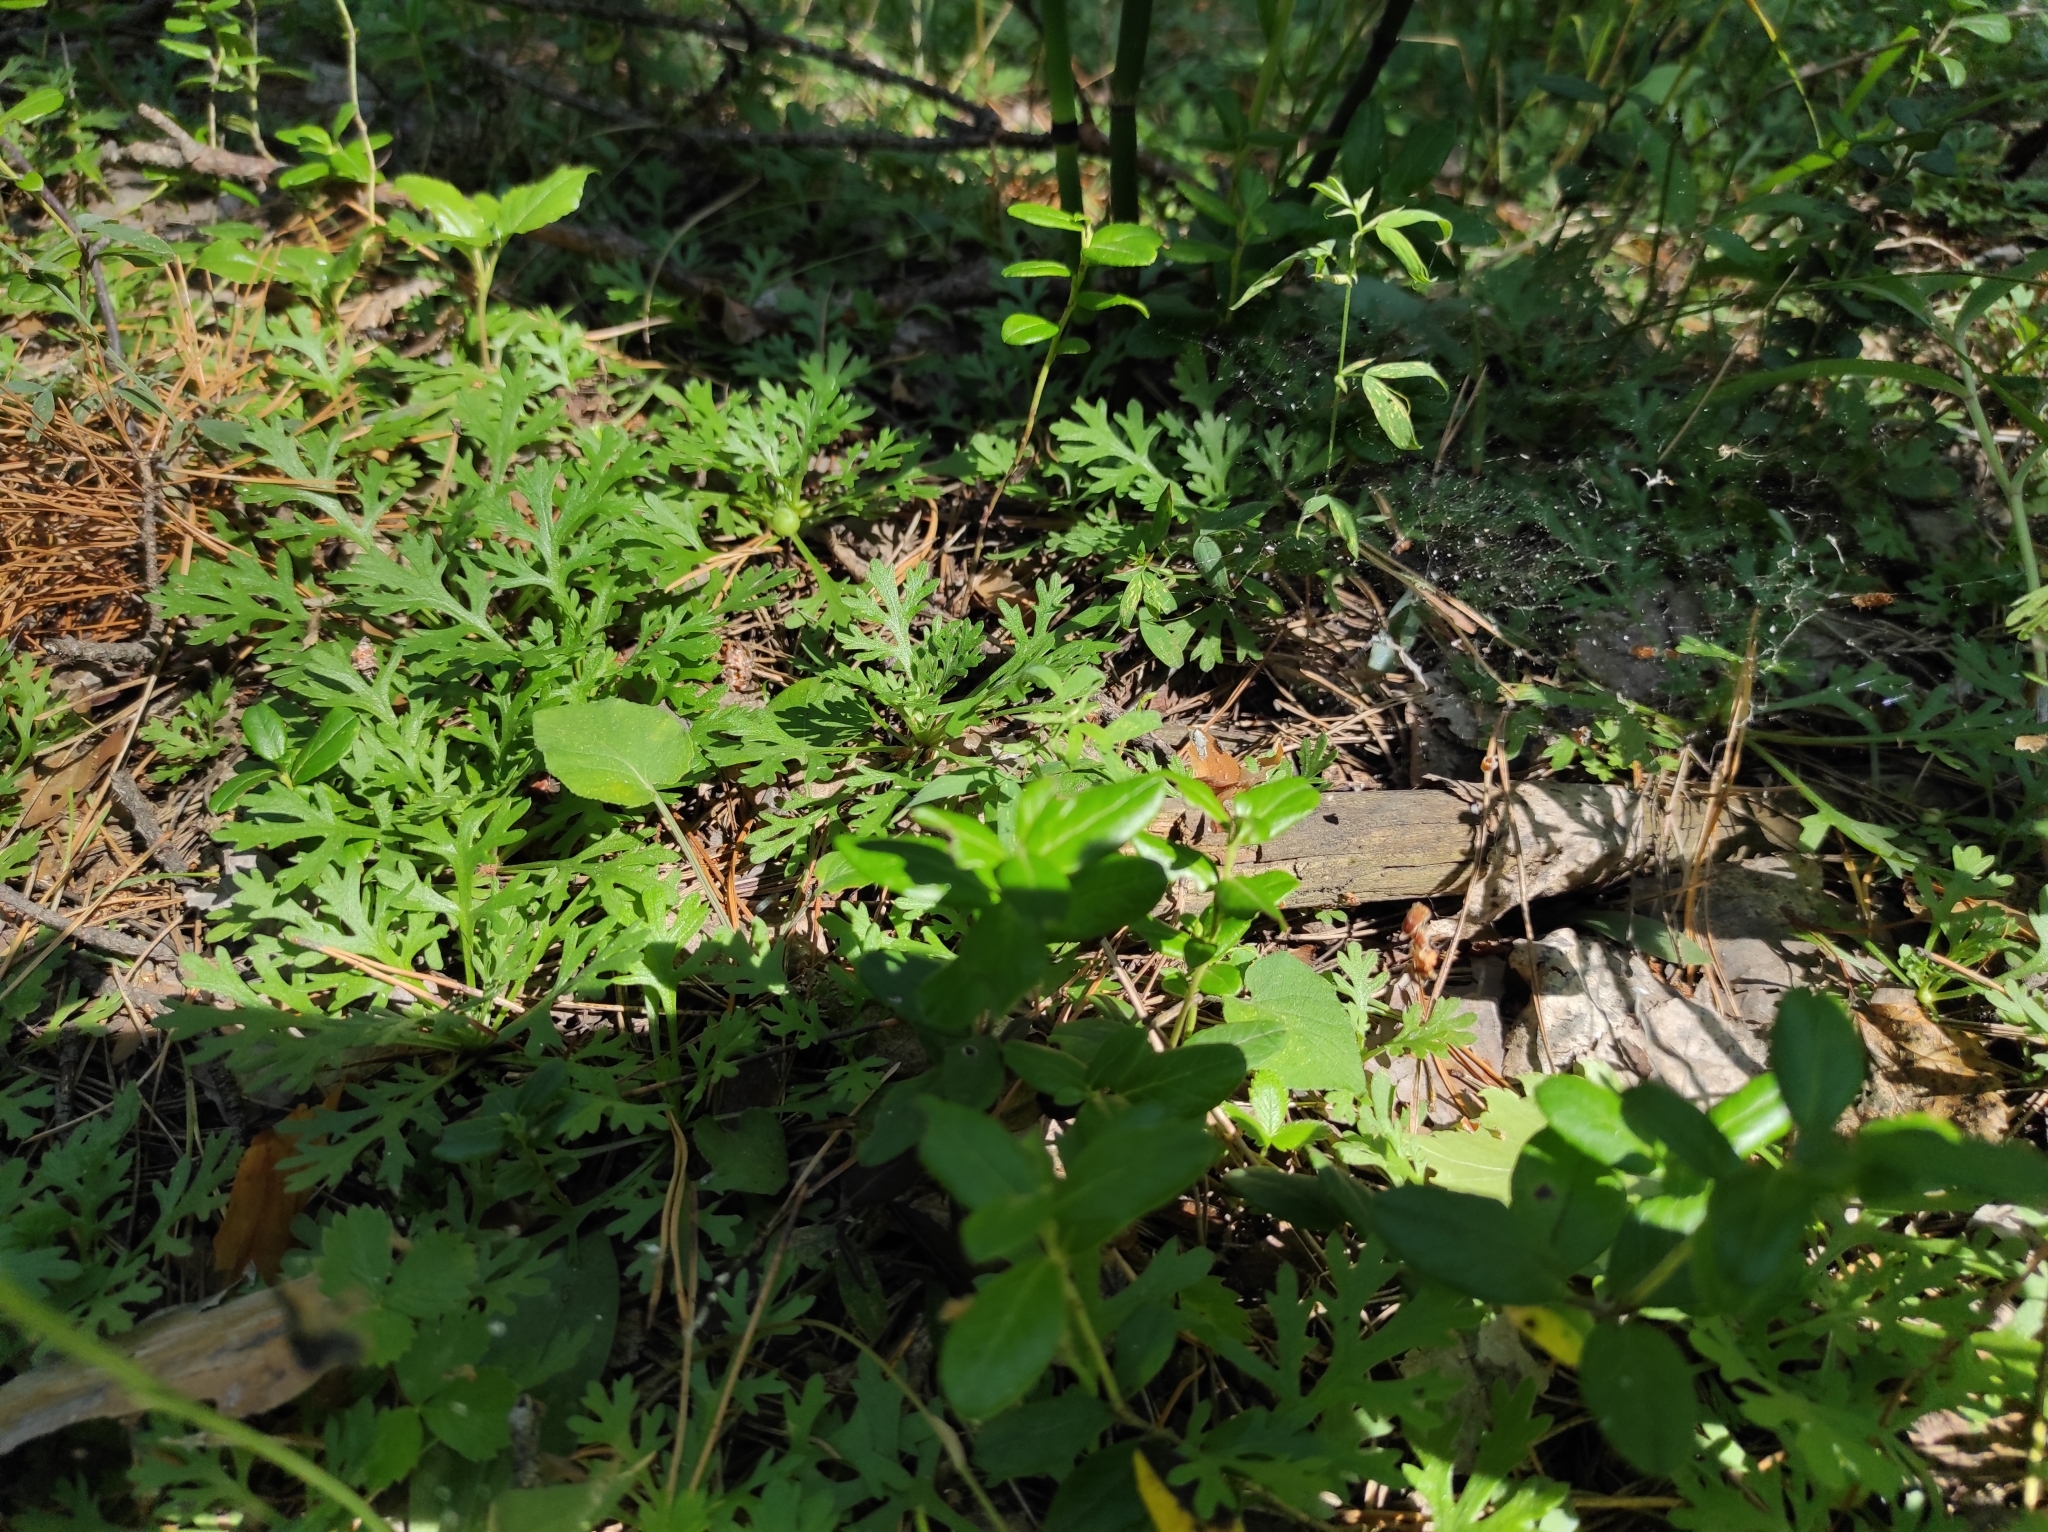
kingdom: Plantae
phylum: Tracheophyta
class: Magnoliopsida
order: Asterales
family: Asteraceae
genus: Chrysanthemum
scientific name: Chrysanthemum zawadzkii
